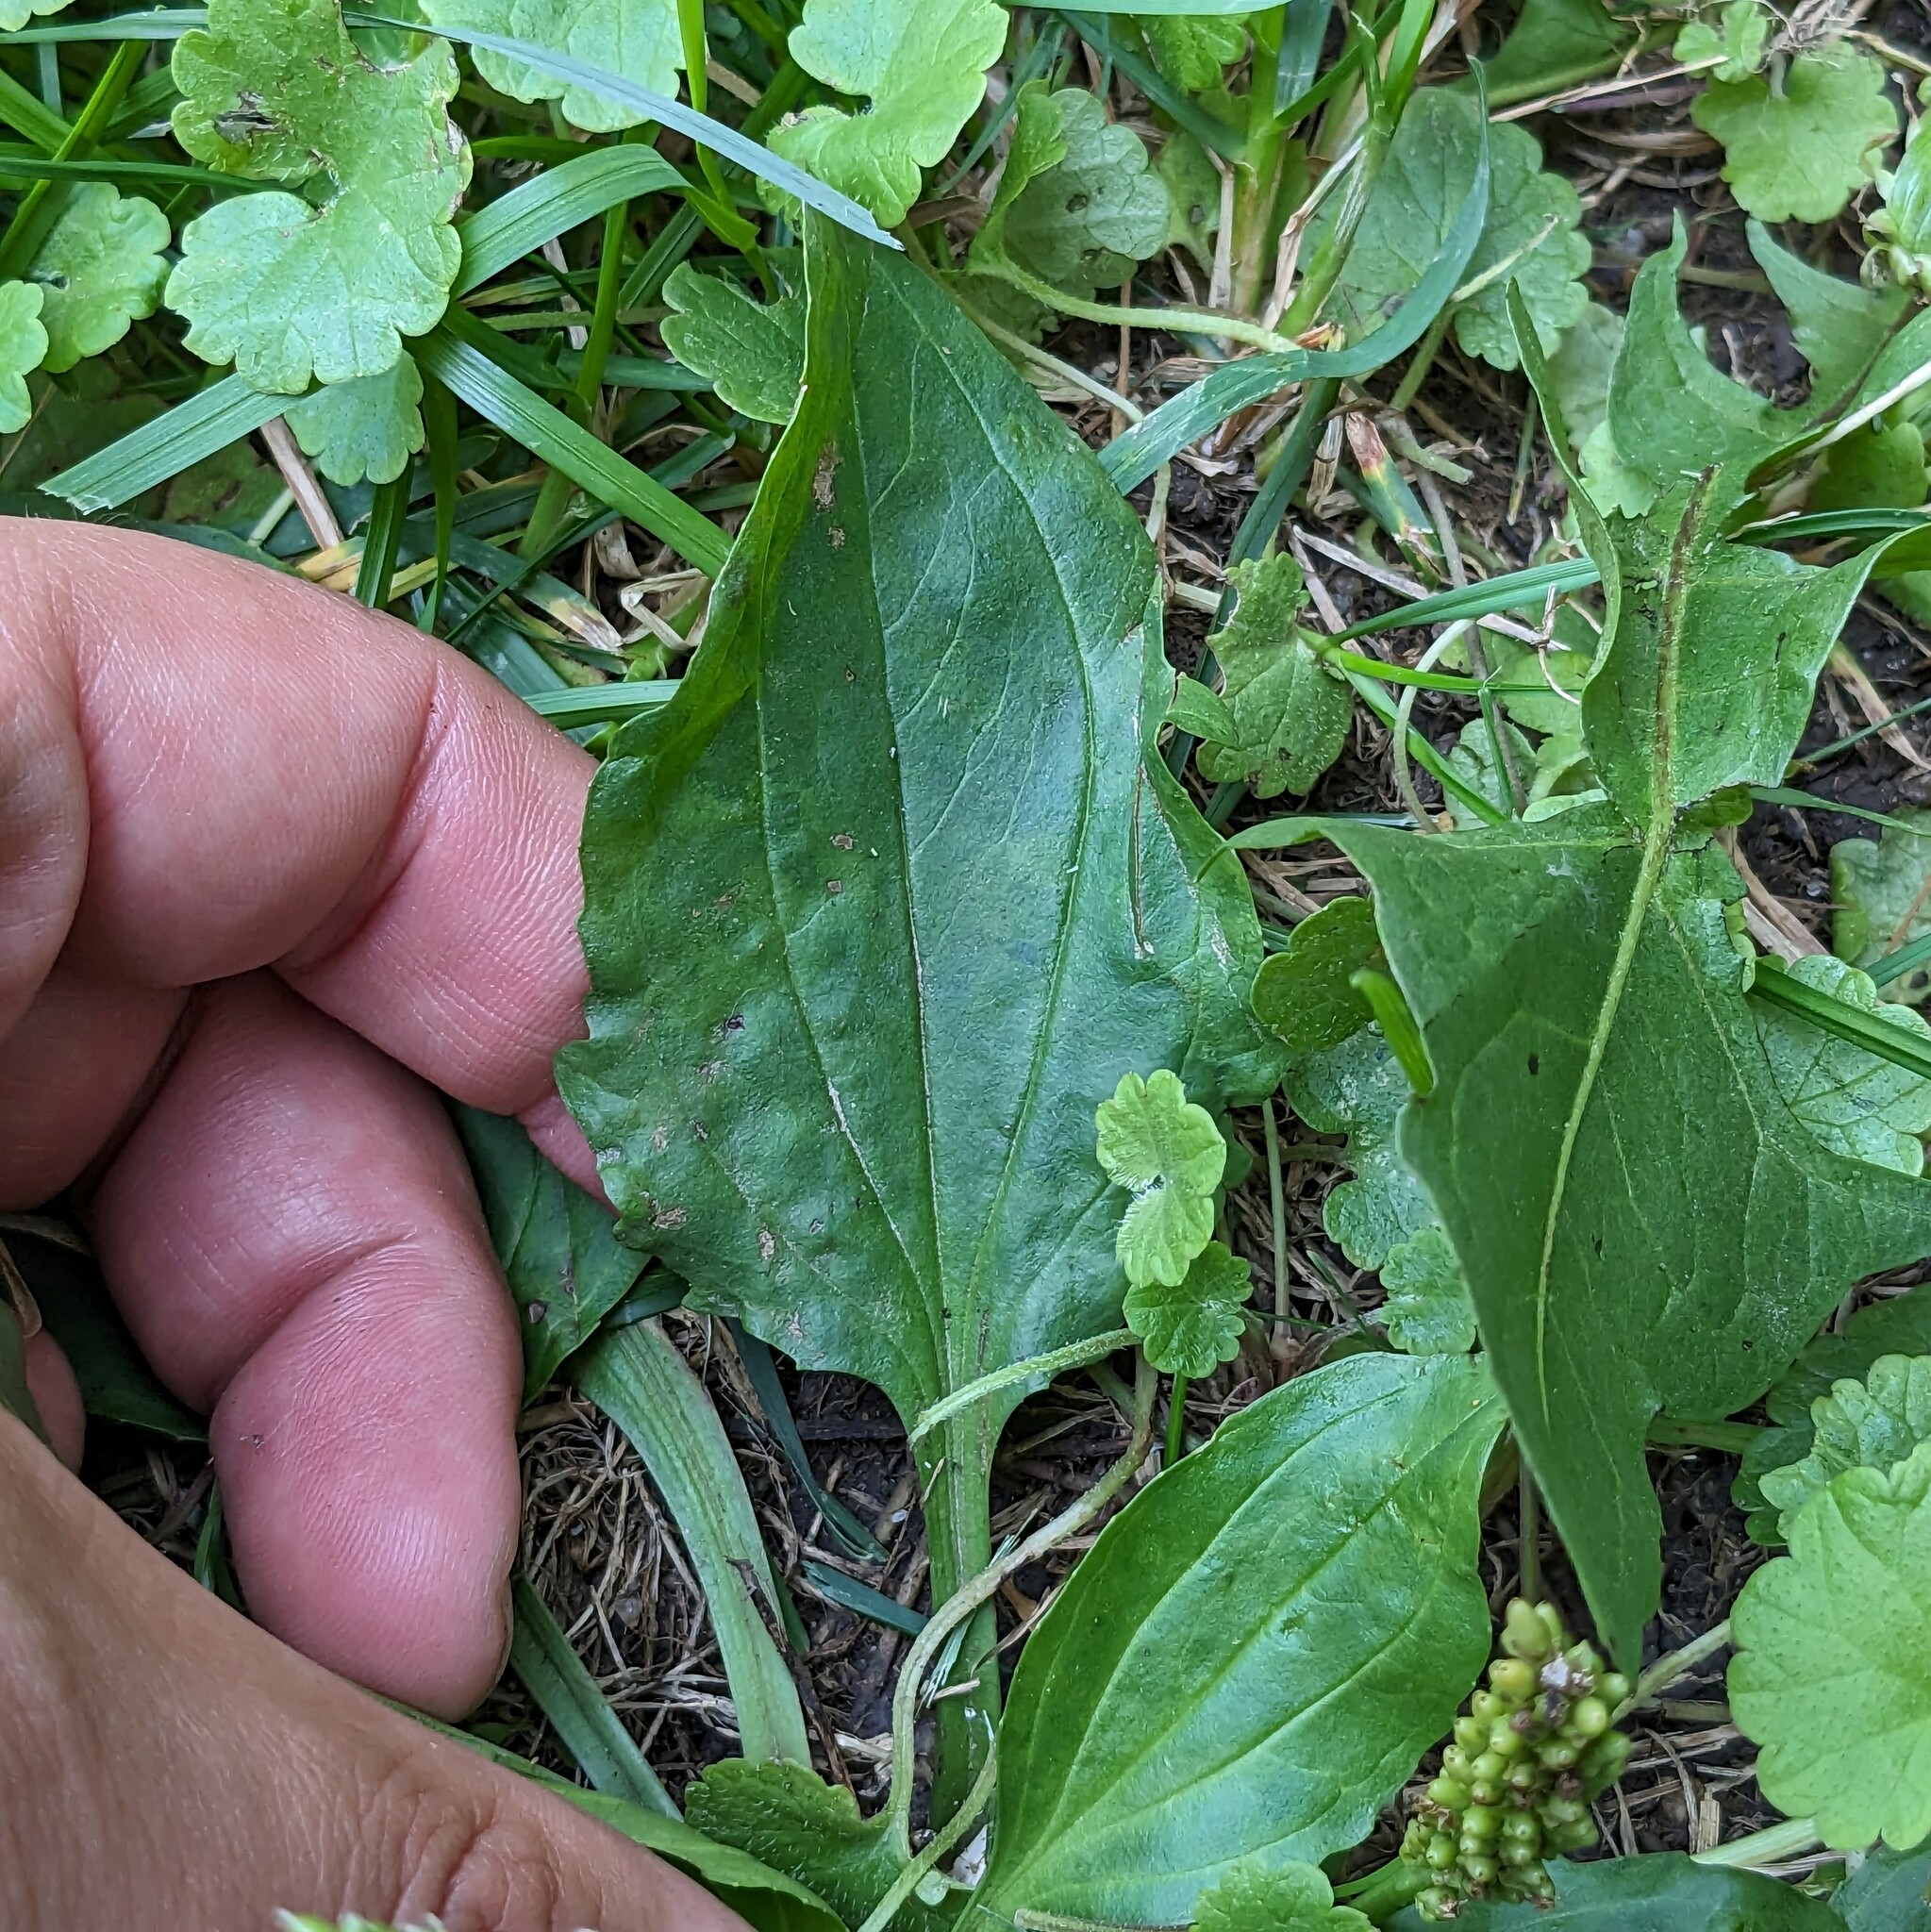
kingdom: Plantae
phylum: Tracheophyta
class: Magnoliopsida
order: Lamiales
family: Plantaginaceae
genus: Plantago
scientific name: Plantago rugelii
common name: American plantain
